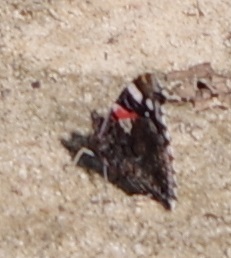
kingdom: Animalia
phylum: Arthropoda
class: Insecta
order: Lepidoptera
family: Nymphalidae
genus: Vanessa
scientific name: Vanessa atalanta
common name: Red admiral
